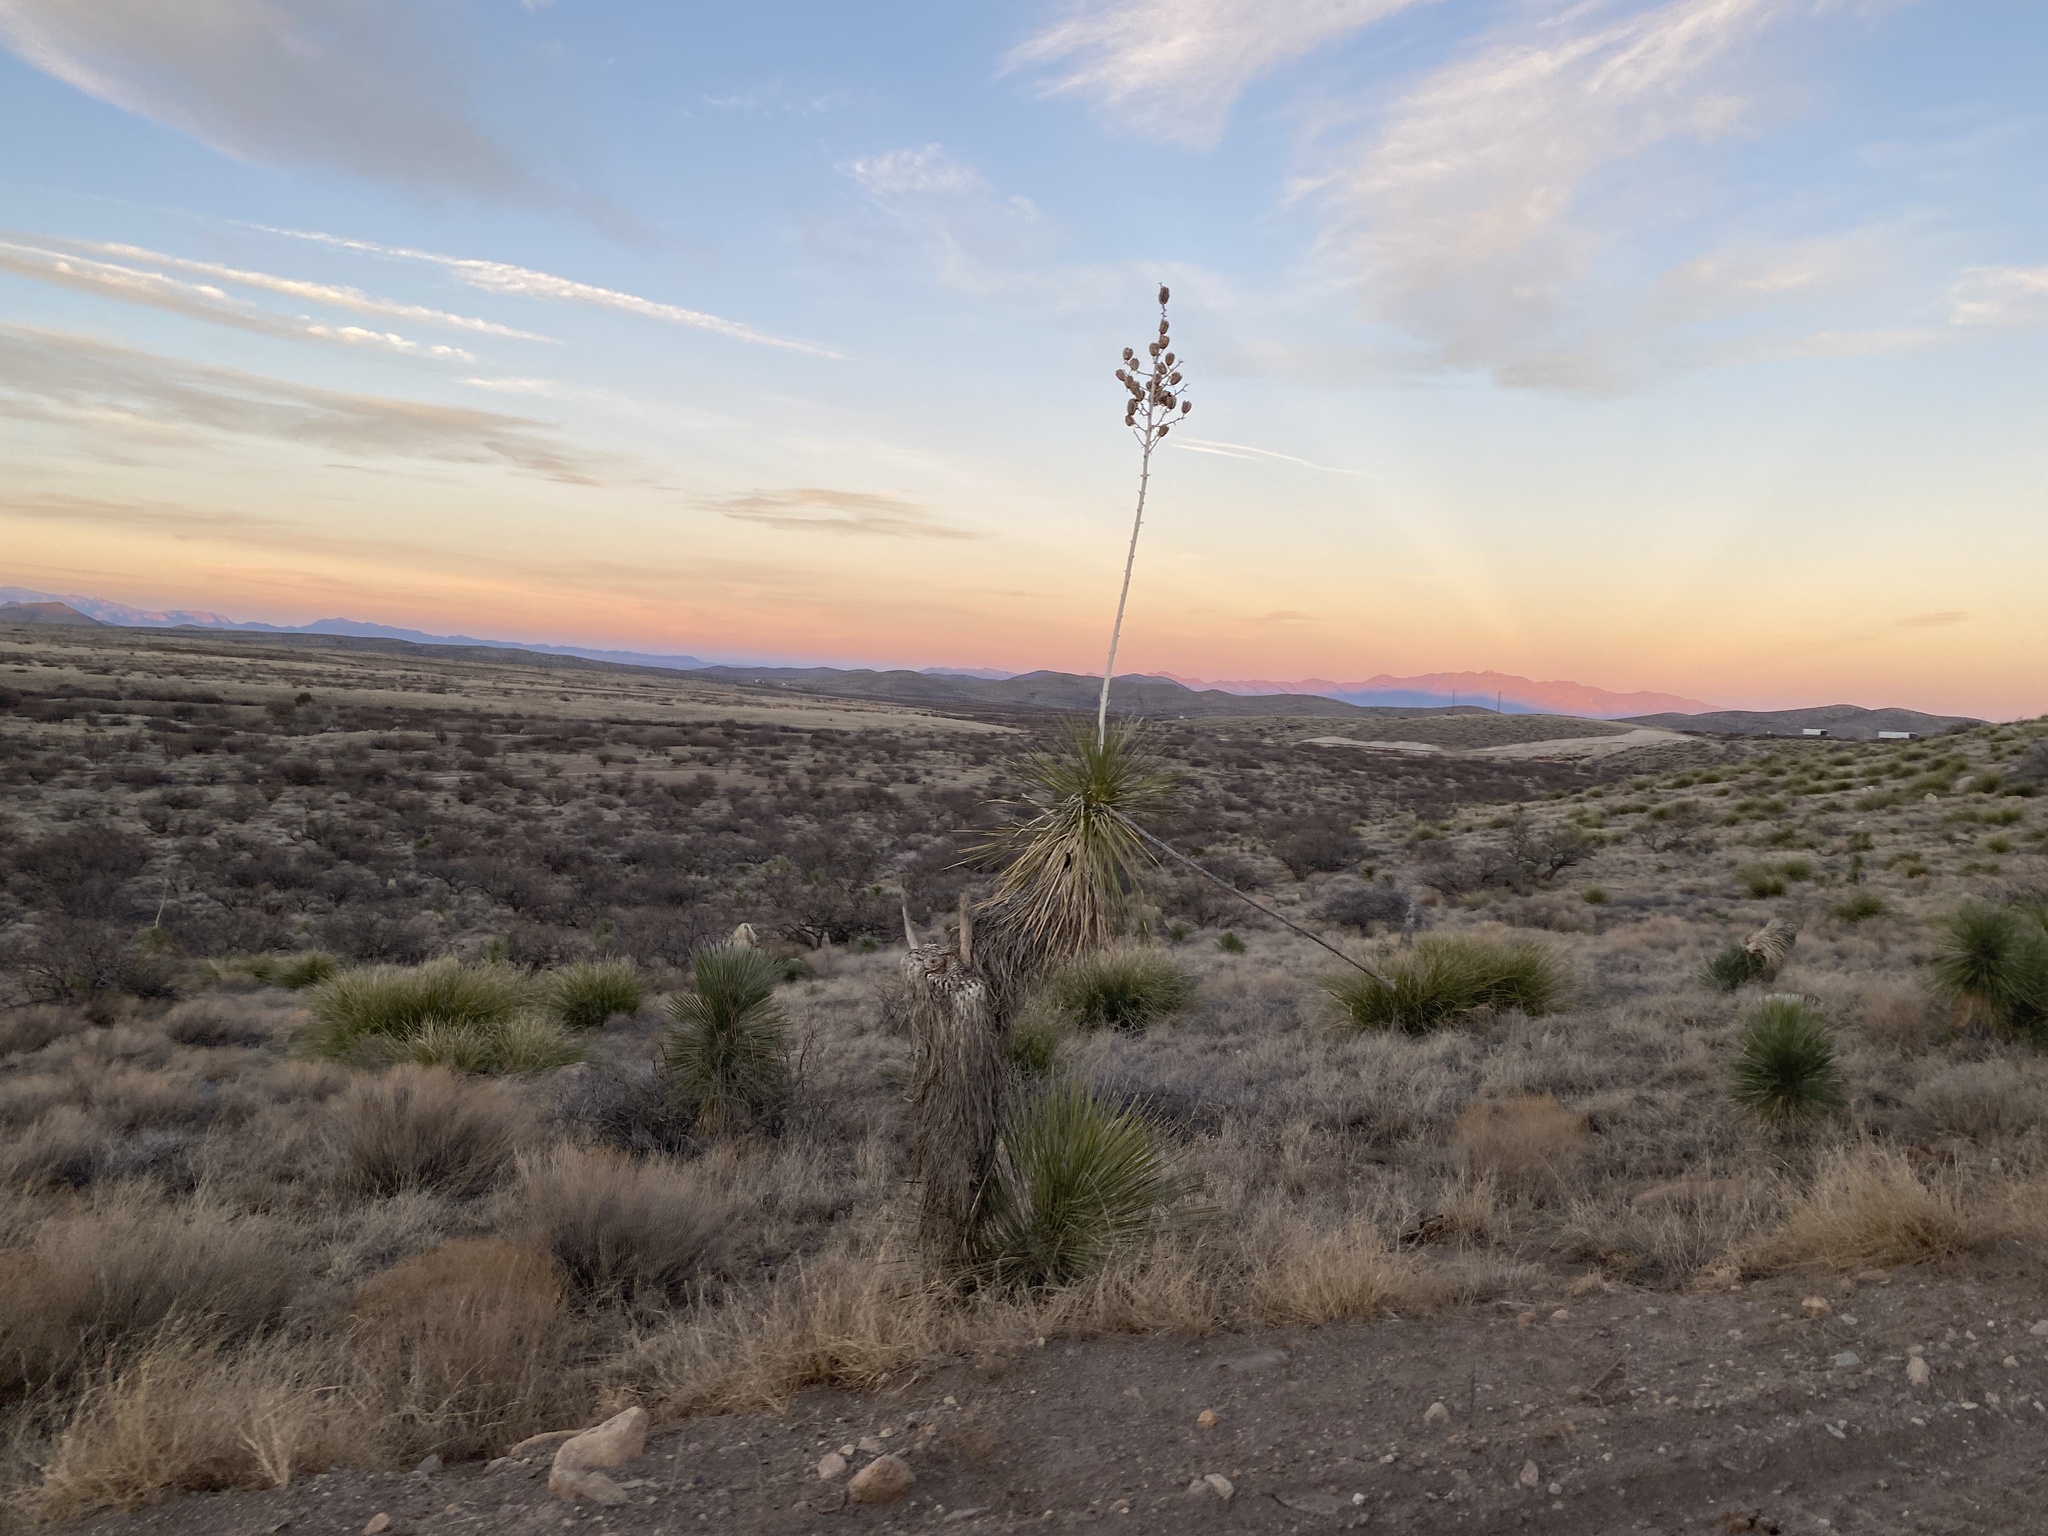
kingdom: Plantae
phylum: Tracheophyta
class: Liliopsida
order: Asparagales
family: Asparagaceae
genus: Yucca
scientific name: Yucca elata
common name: Palmella
